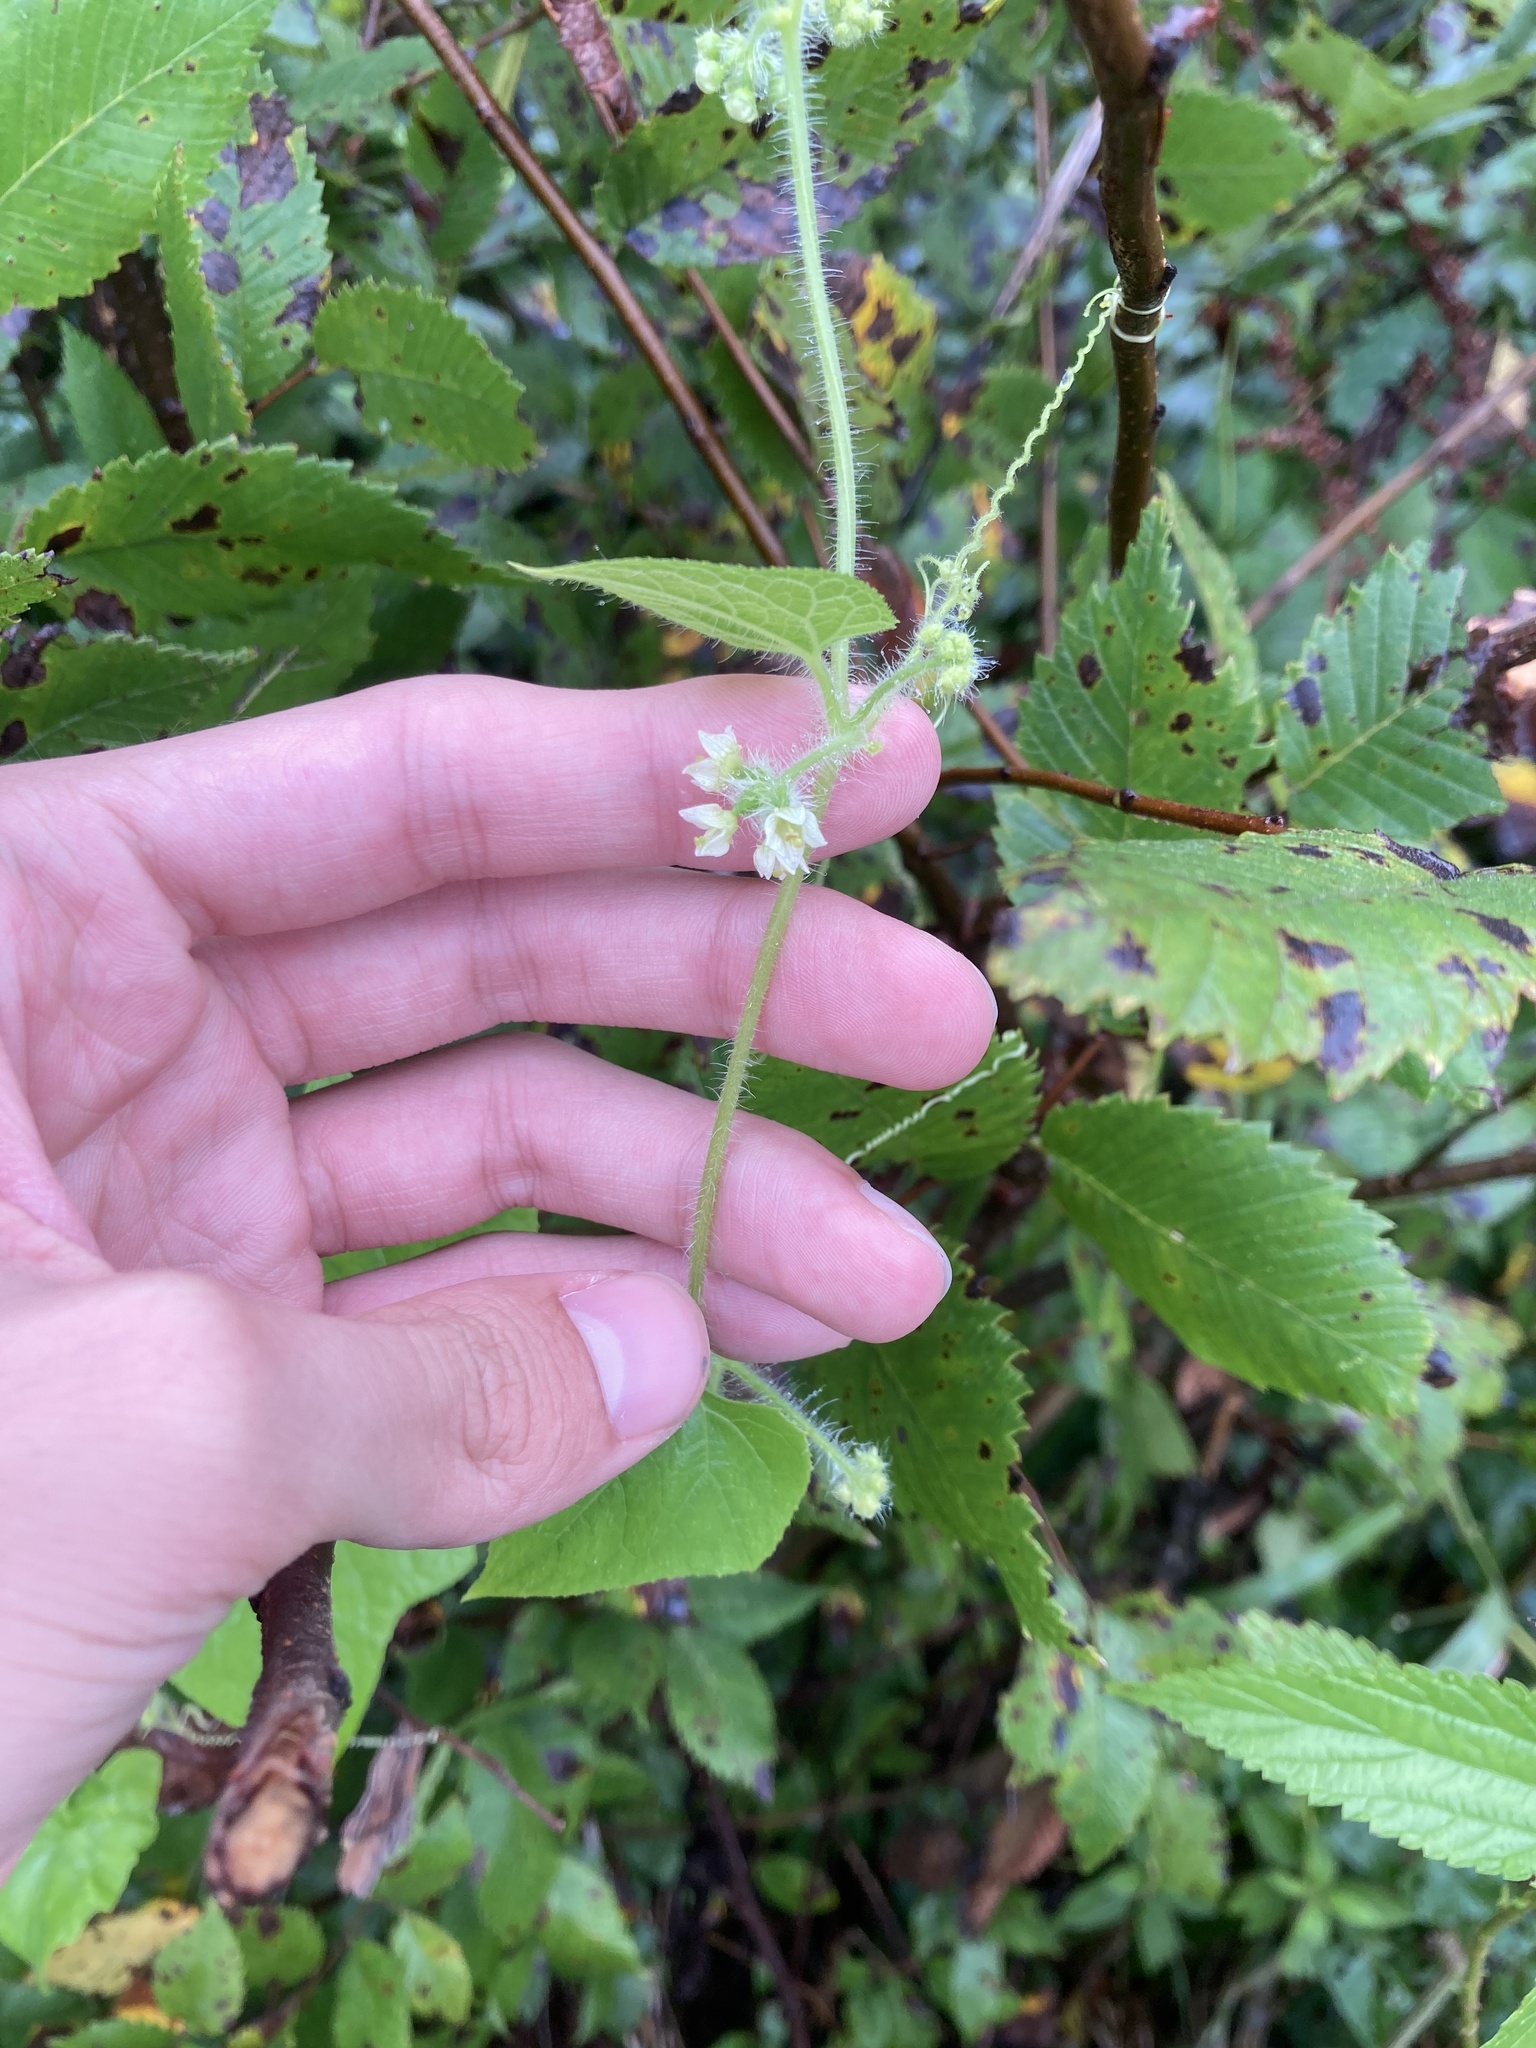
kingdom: Plantae
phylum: Tracheophyta
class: Magnoliopsida
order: Cucurbitales
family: Cucurbitaceae
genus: Sicyos
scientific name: Sicyos angulatus
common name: Angled burr cucumber
